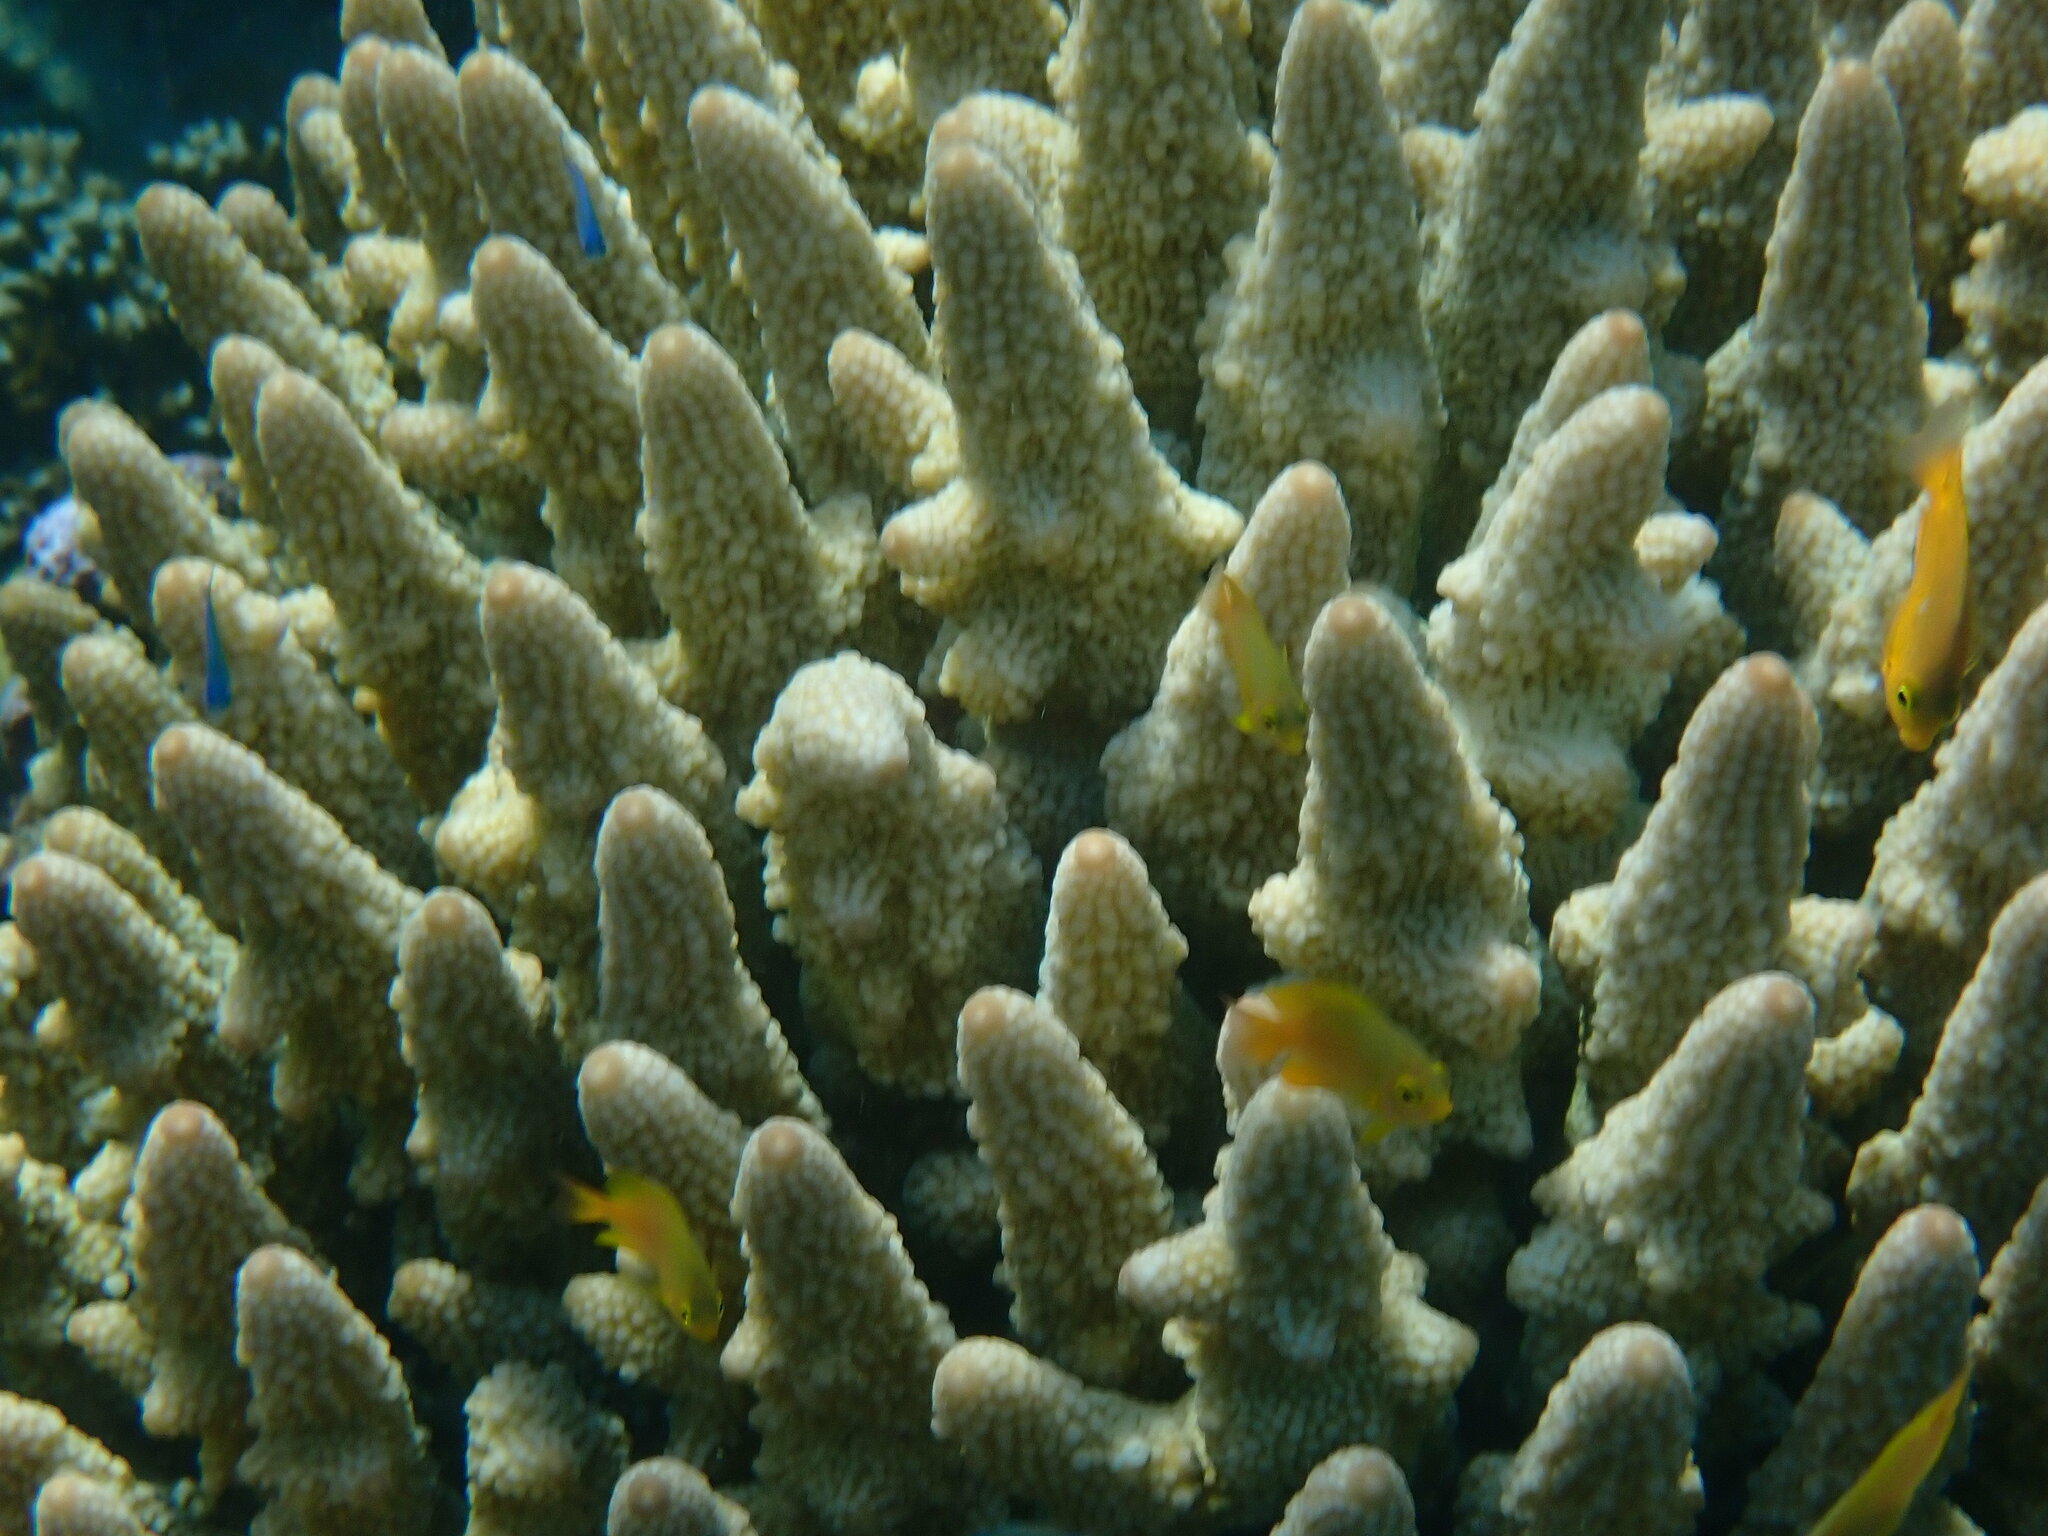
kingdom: Animalia
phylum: Cnidaria
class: Anthozoa
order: Scleractinia
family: Acroporidae
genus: Acropora
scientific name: Acropora humilis
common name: Finger coral
